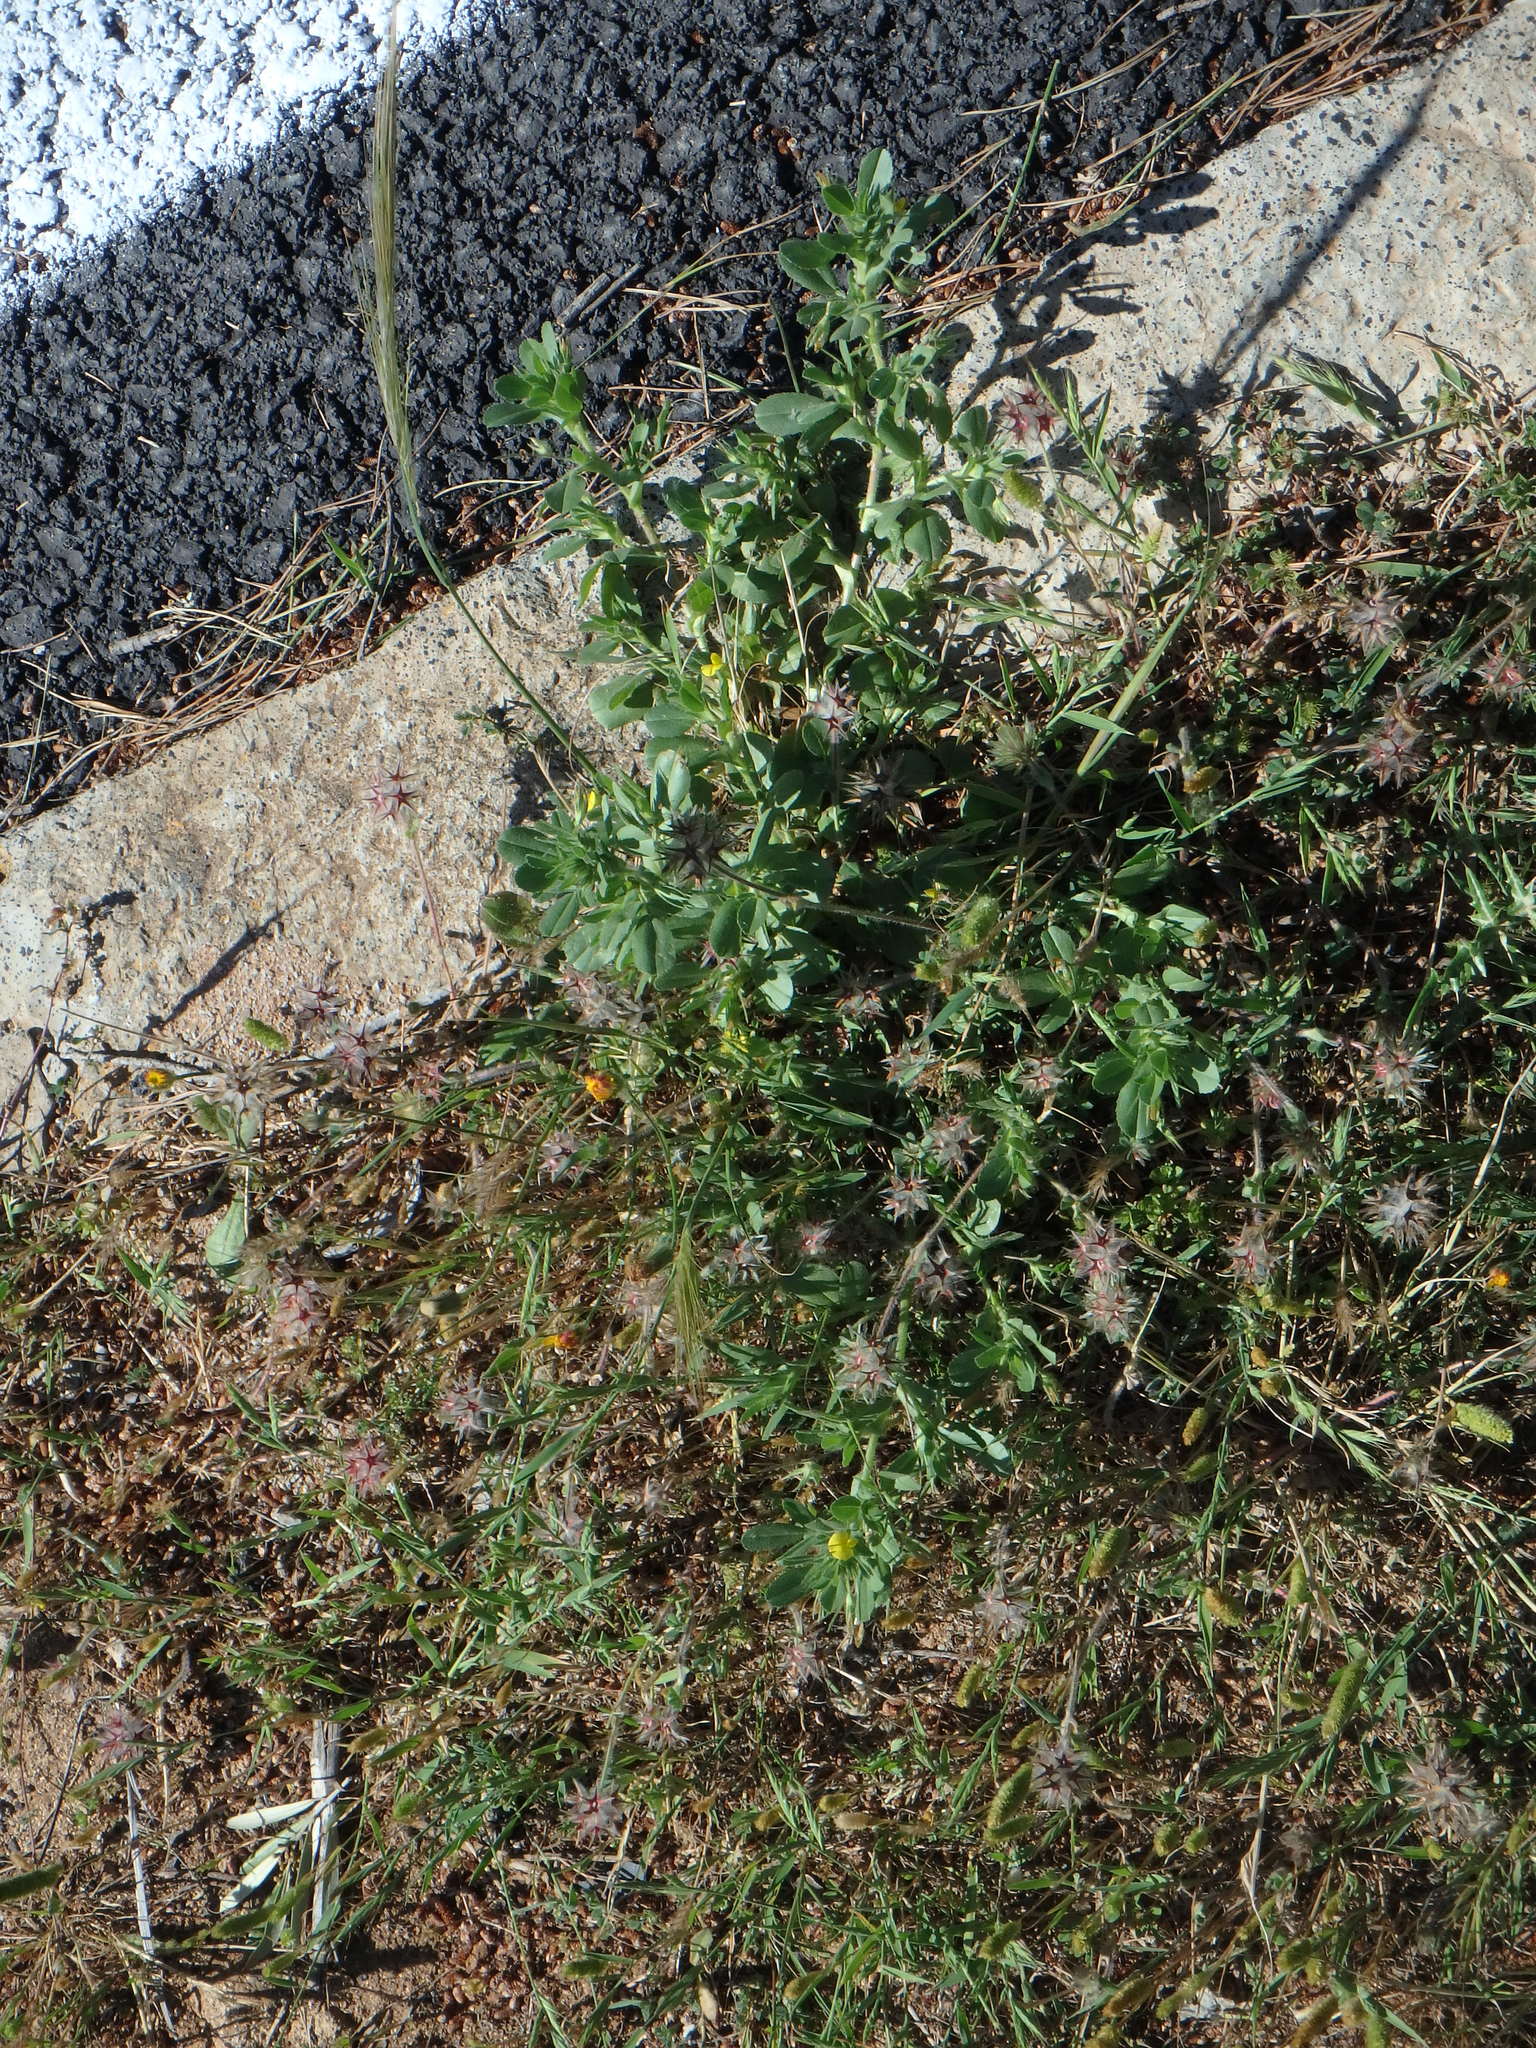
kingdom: Plantae
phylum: Tracheophyta
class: Magnoliopsida
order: Fabales
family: Fabaceae
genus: Trifolium
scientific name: Trifolium stellatum
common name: Starry clover
